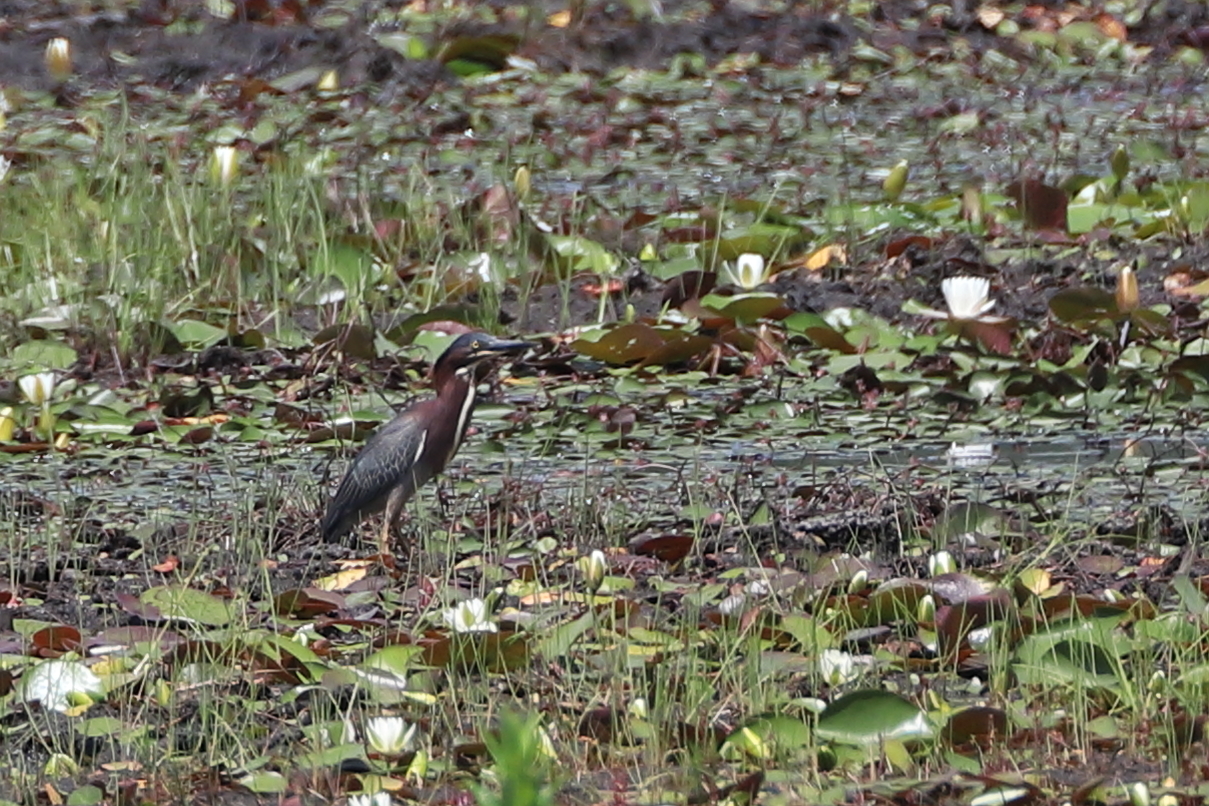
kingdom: Animalia
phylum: Chordata
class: Aves
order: Pelecaniformes
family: Ardeidae
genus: Butorides
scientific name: Butorides virescens
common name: Green heron
